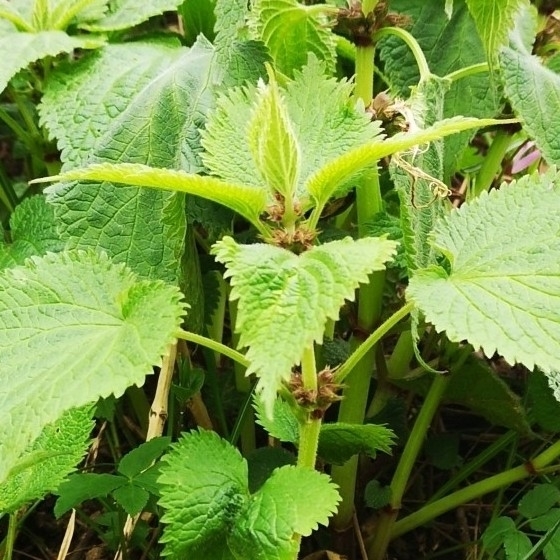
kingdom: Plantae
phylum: Tracheophyta
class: Magnoliopsida
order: Lamiales
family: Lamiaceae
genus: Lamium
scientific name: Lamium orvala
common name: Balm-leaved archangel
